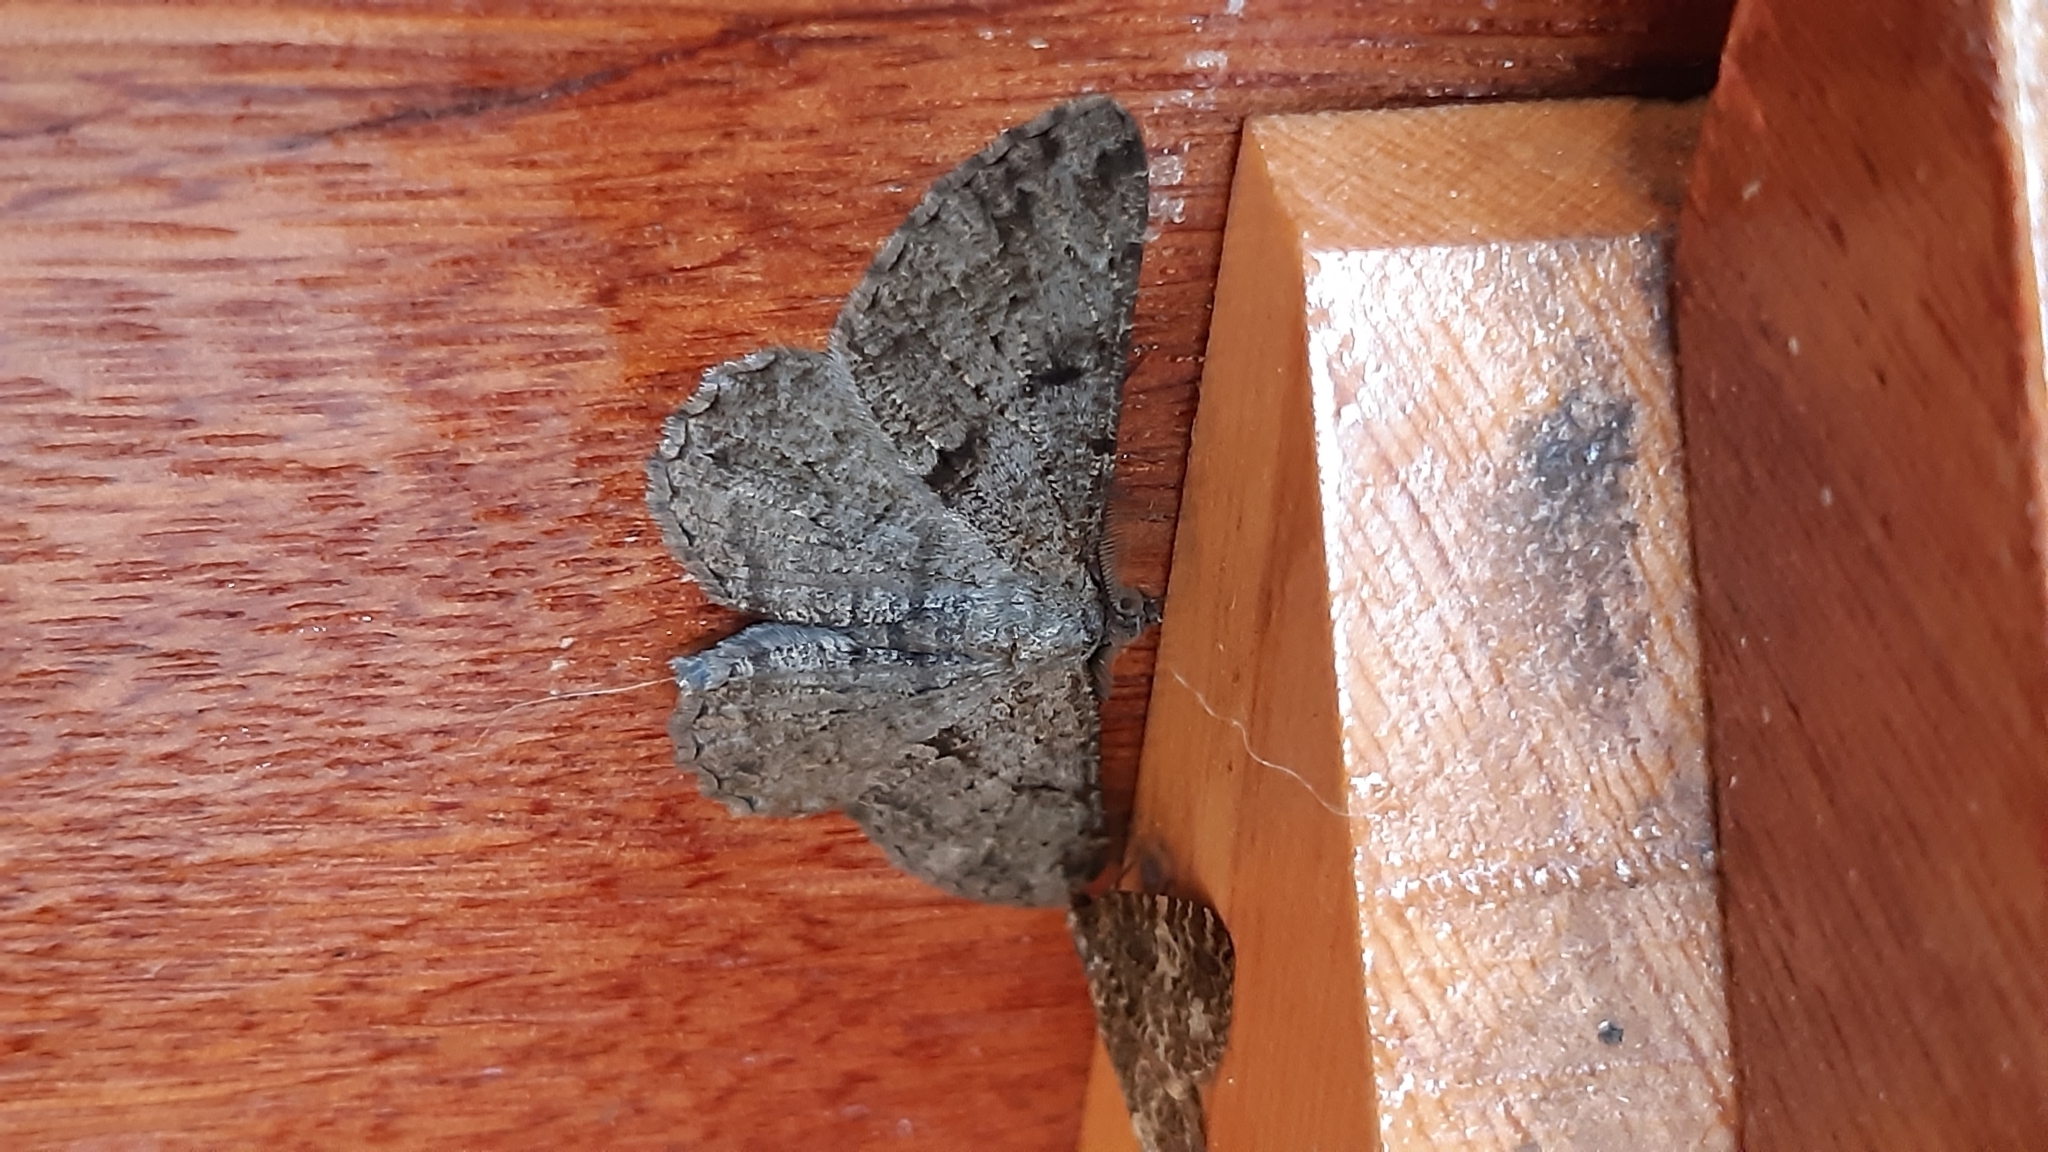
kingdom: Animalia
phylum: Arthropoda
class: Insecta
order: Lepidoptera
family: Geometridae
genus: Peribatodes
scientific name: Peribatodes rhomboidaria
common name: Willow beauty
